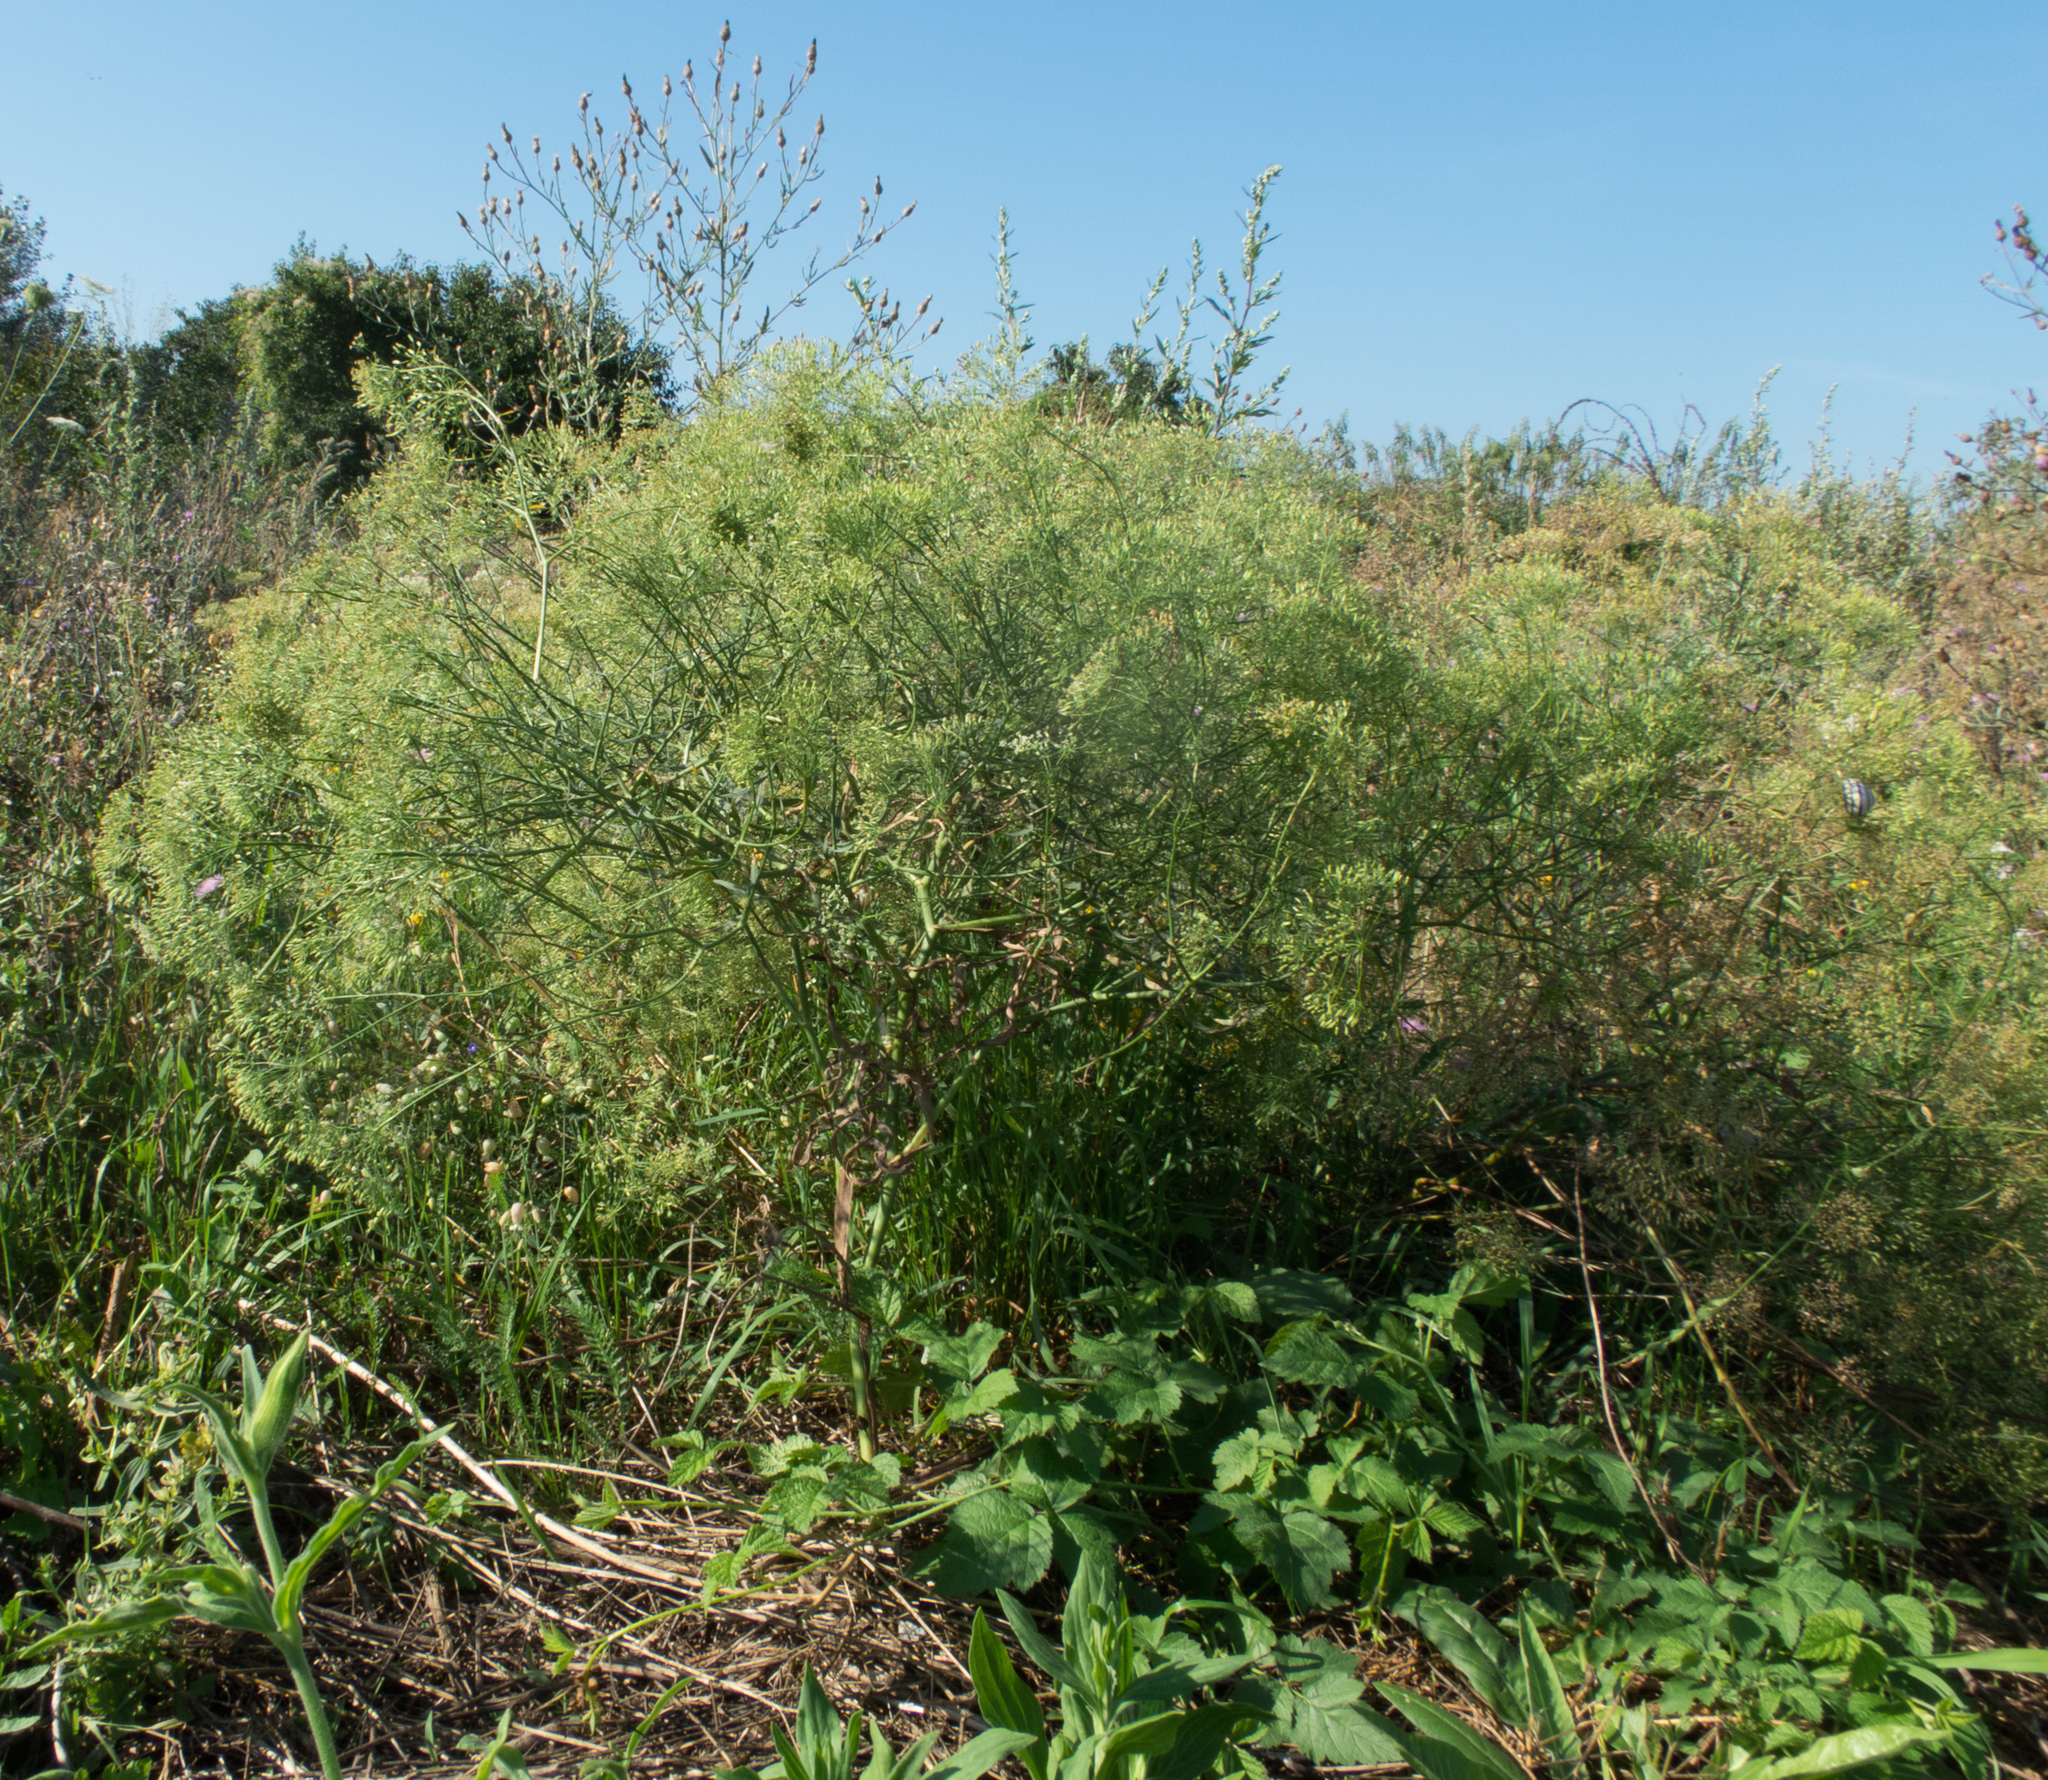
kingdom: Plantae
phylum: Tracheophyta
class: Magnoliopsida
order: Apiales
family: Apiaceae
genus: Falcaria
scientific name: Falcaria vulgaris
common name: Longleaf
